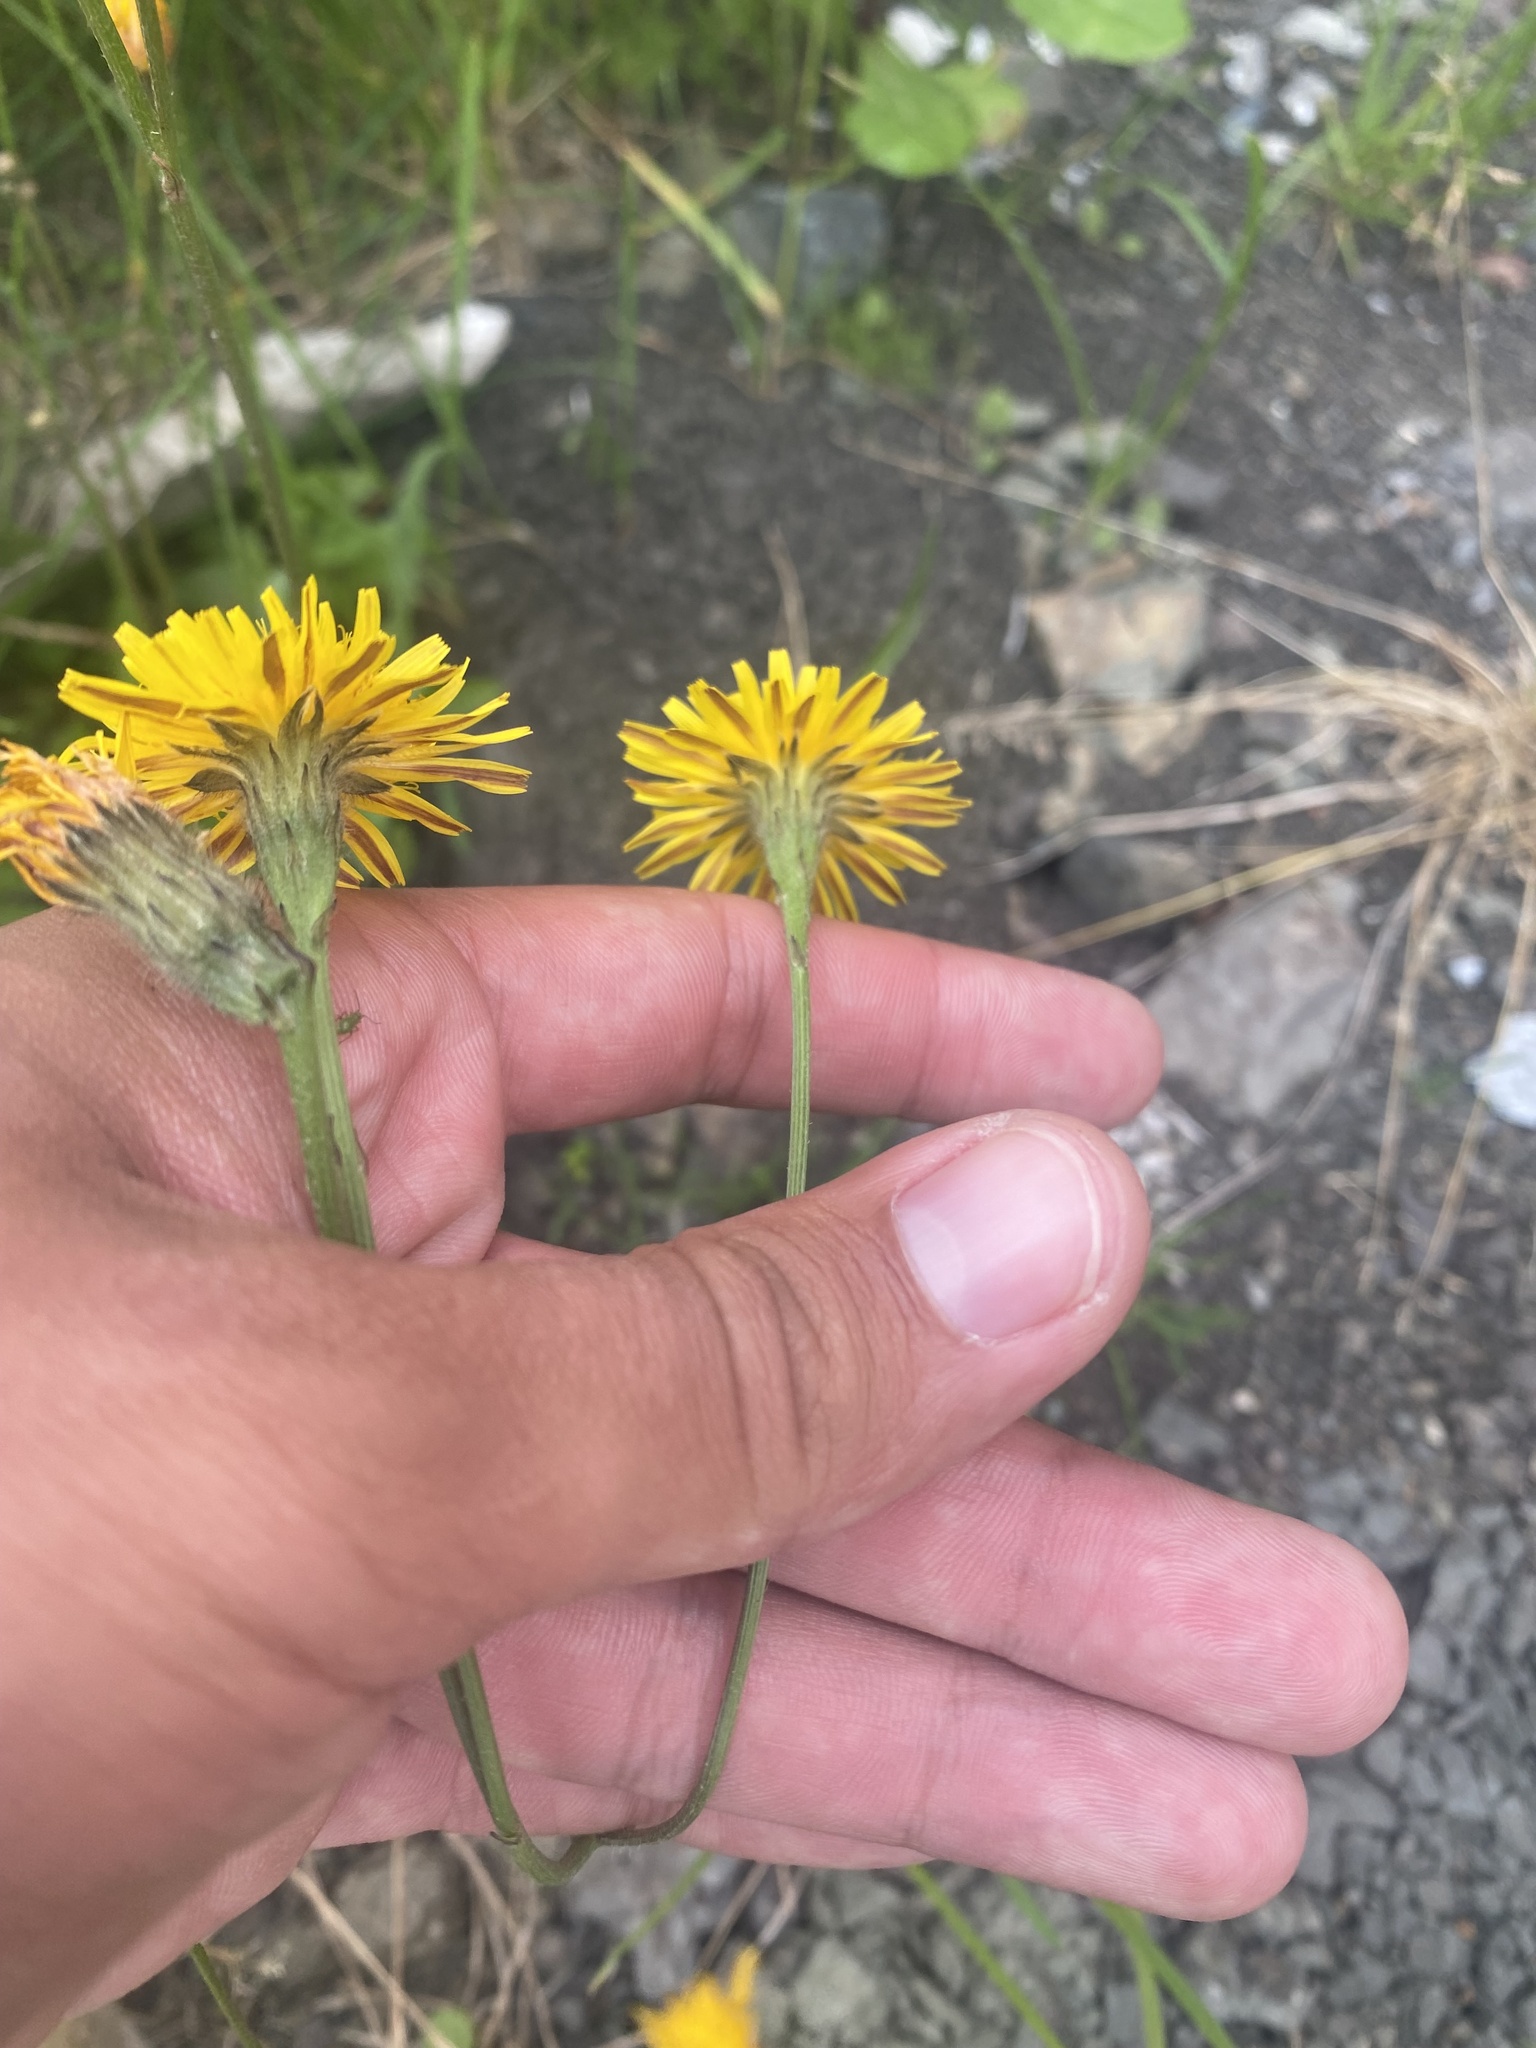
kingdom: Plantae
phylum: Tracheophyta
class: Magnoliopsida
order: Asterales
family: Asteraceae
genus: Picris
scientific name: Picris japonica
